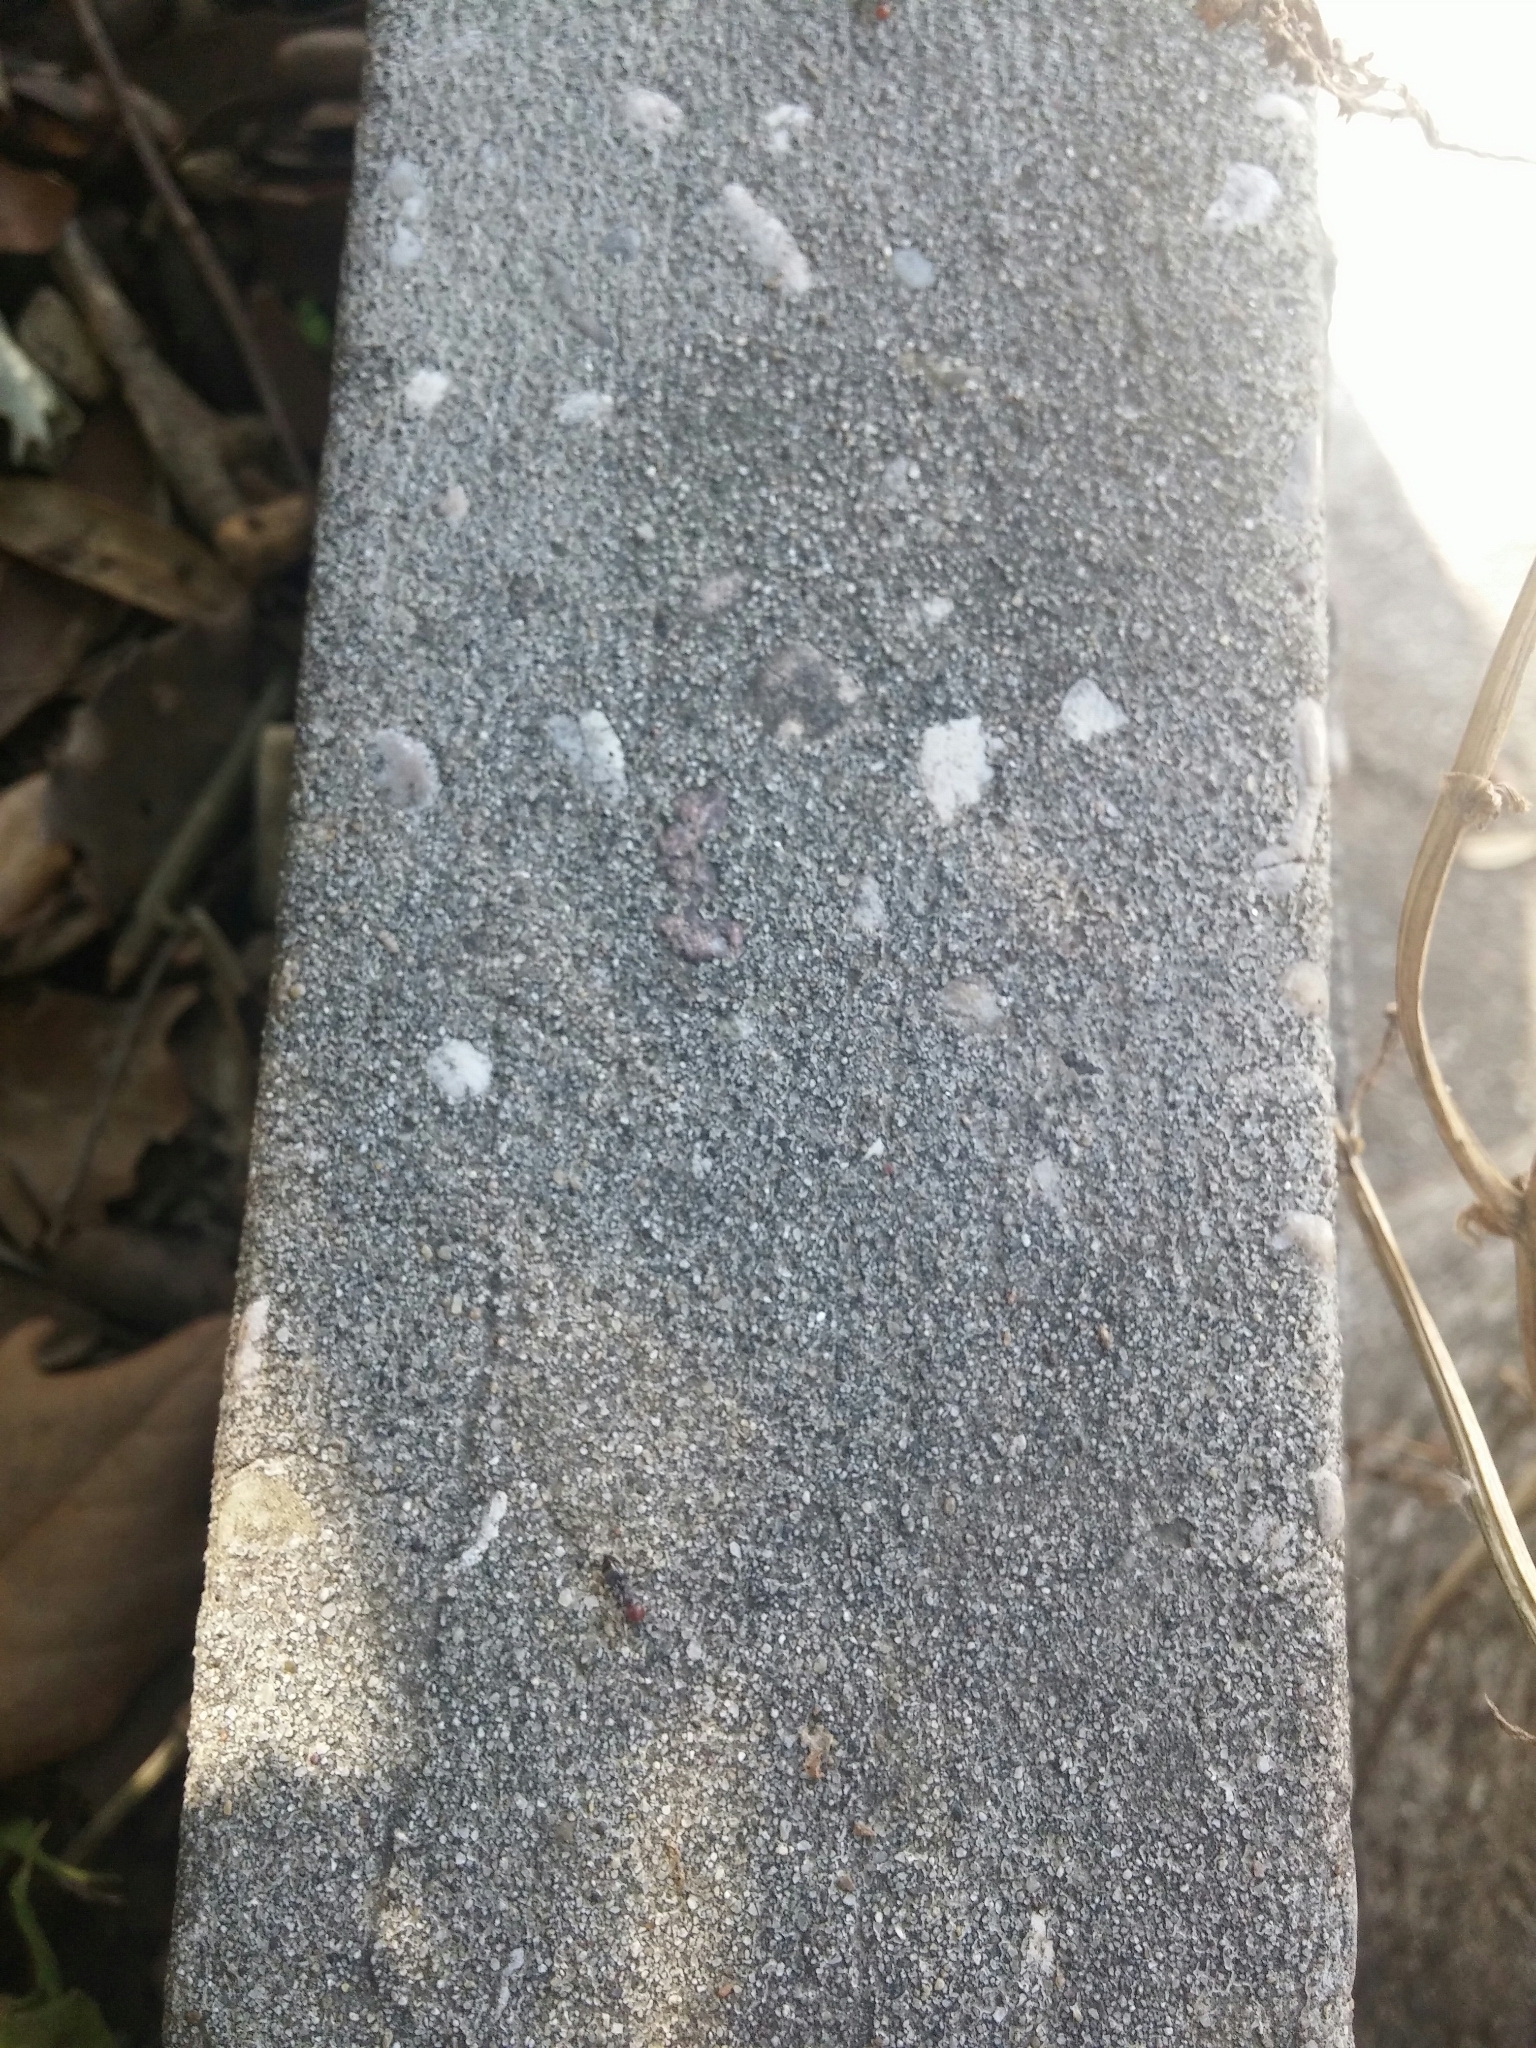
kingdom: Animalia
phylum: Arthropoda
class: Insecta
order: Hymenoptera
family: Formicidae
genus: Crematogaster
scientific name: Crematogaster scutellaris
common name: Fourmi du liège
